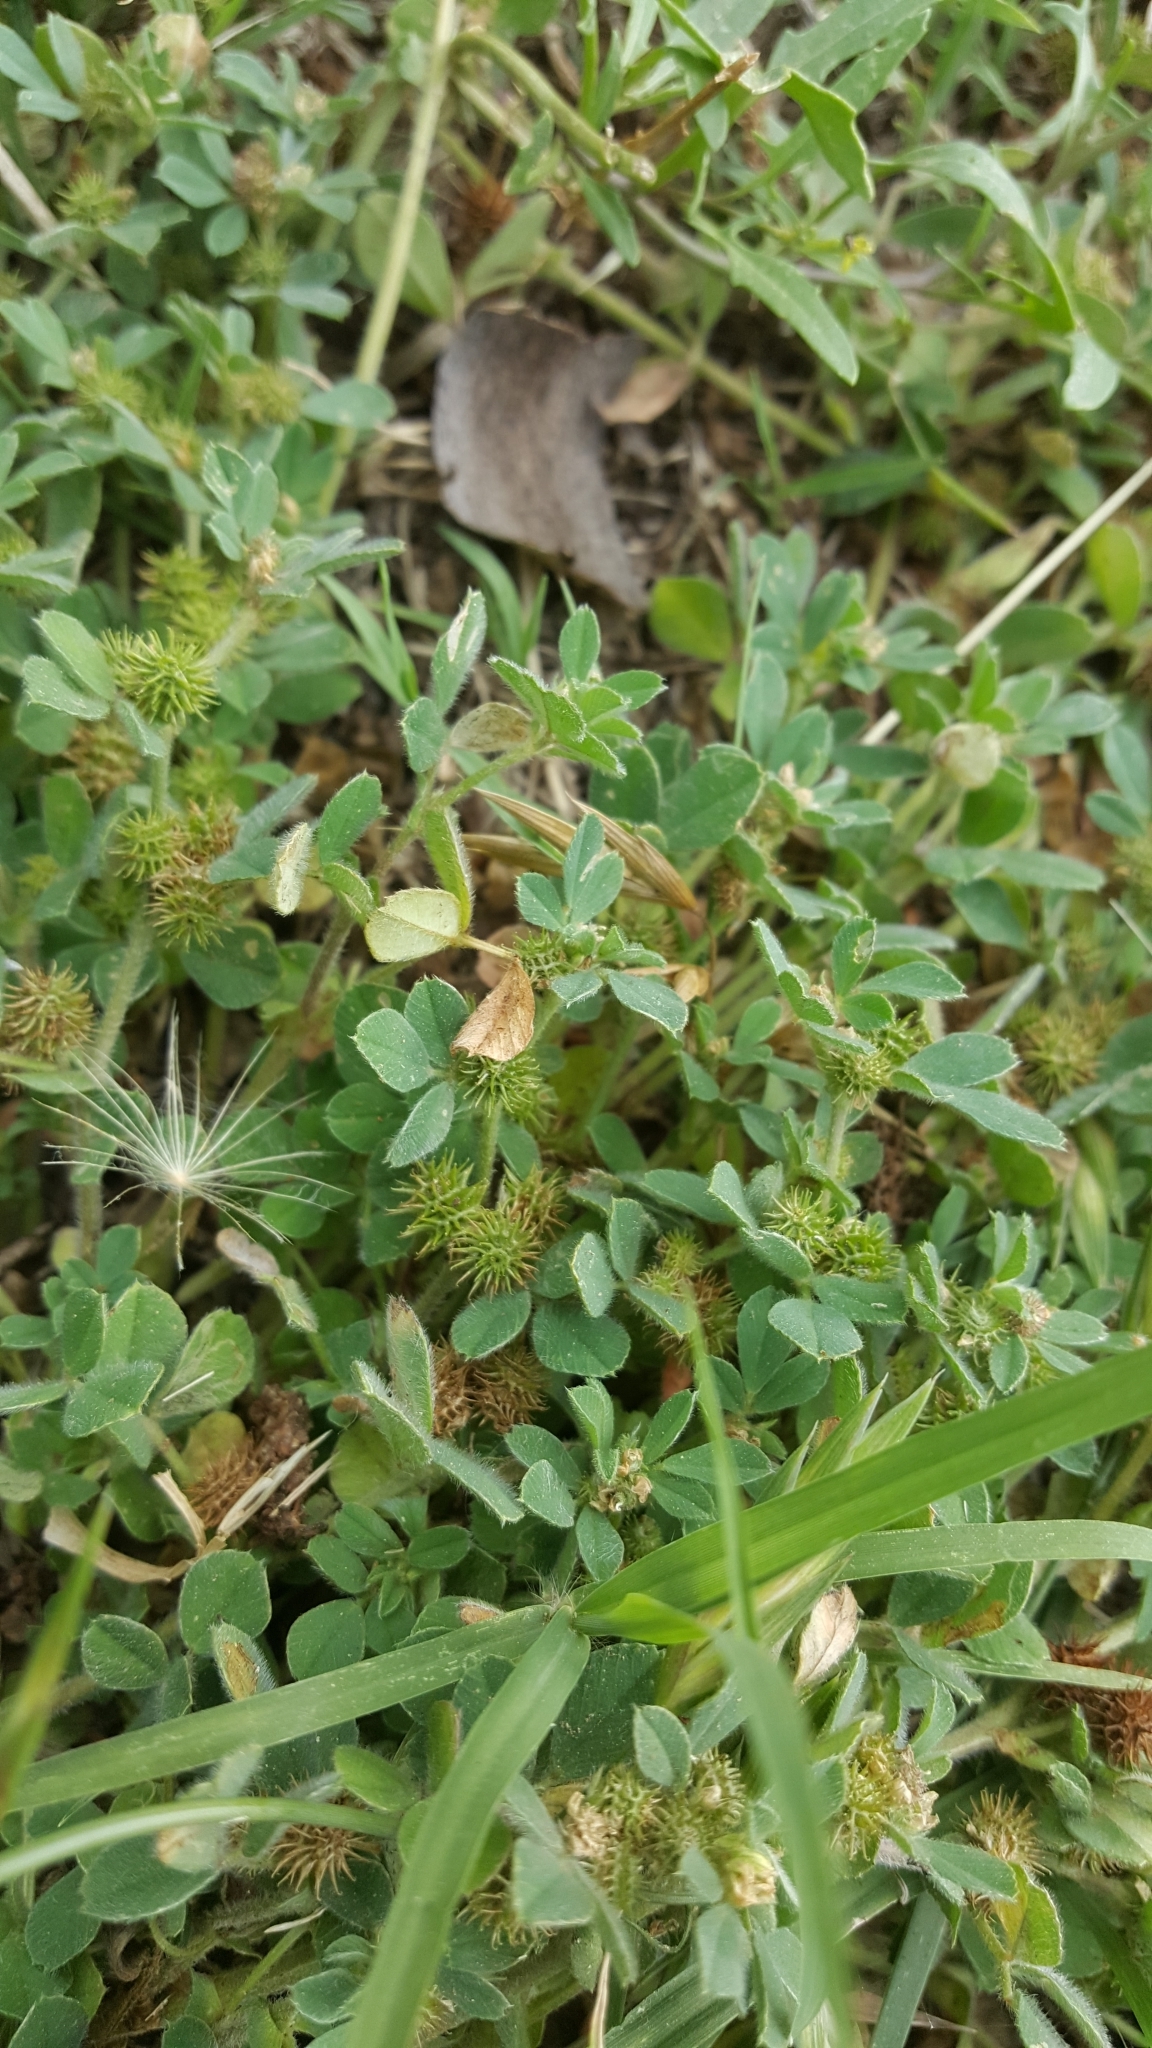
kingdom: Plantae
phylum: Tracheophyta
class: Magnoliopsida
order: Fabales
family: Fabaceae
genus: Medicago
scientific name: Medicago minima
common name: Little bur-clover
